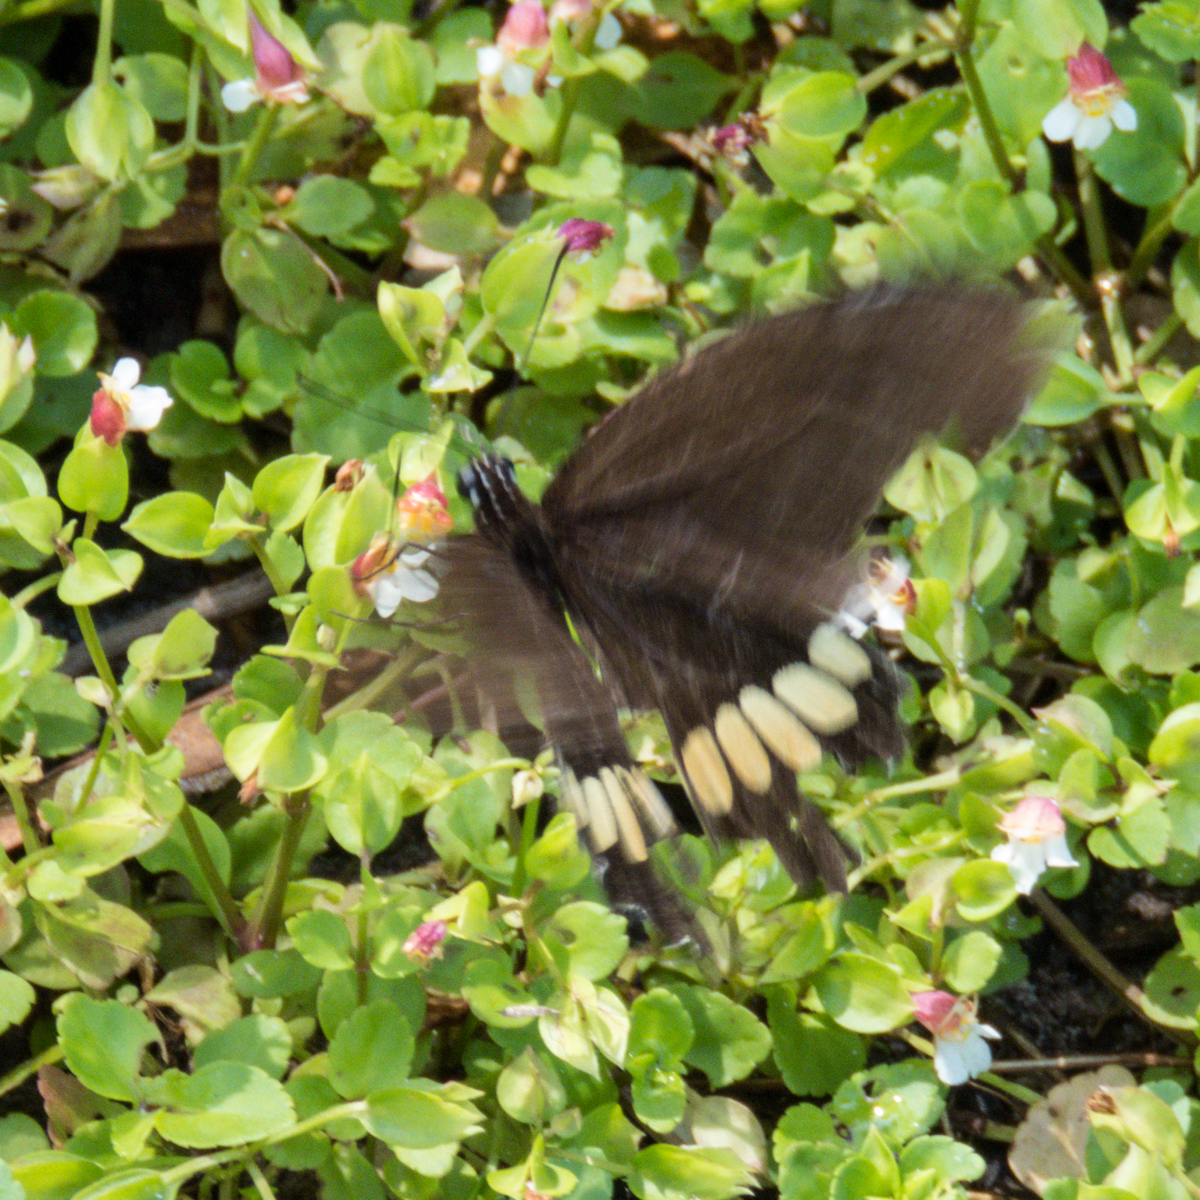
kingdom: Animalia
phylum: Arthropoda
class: Insecta
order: Lepidoptera
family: Papilionidae
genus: Papilio
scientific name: Papilio polytes
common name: Common mormon
